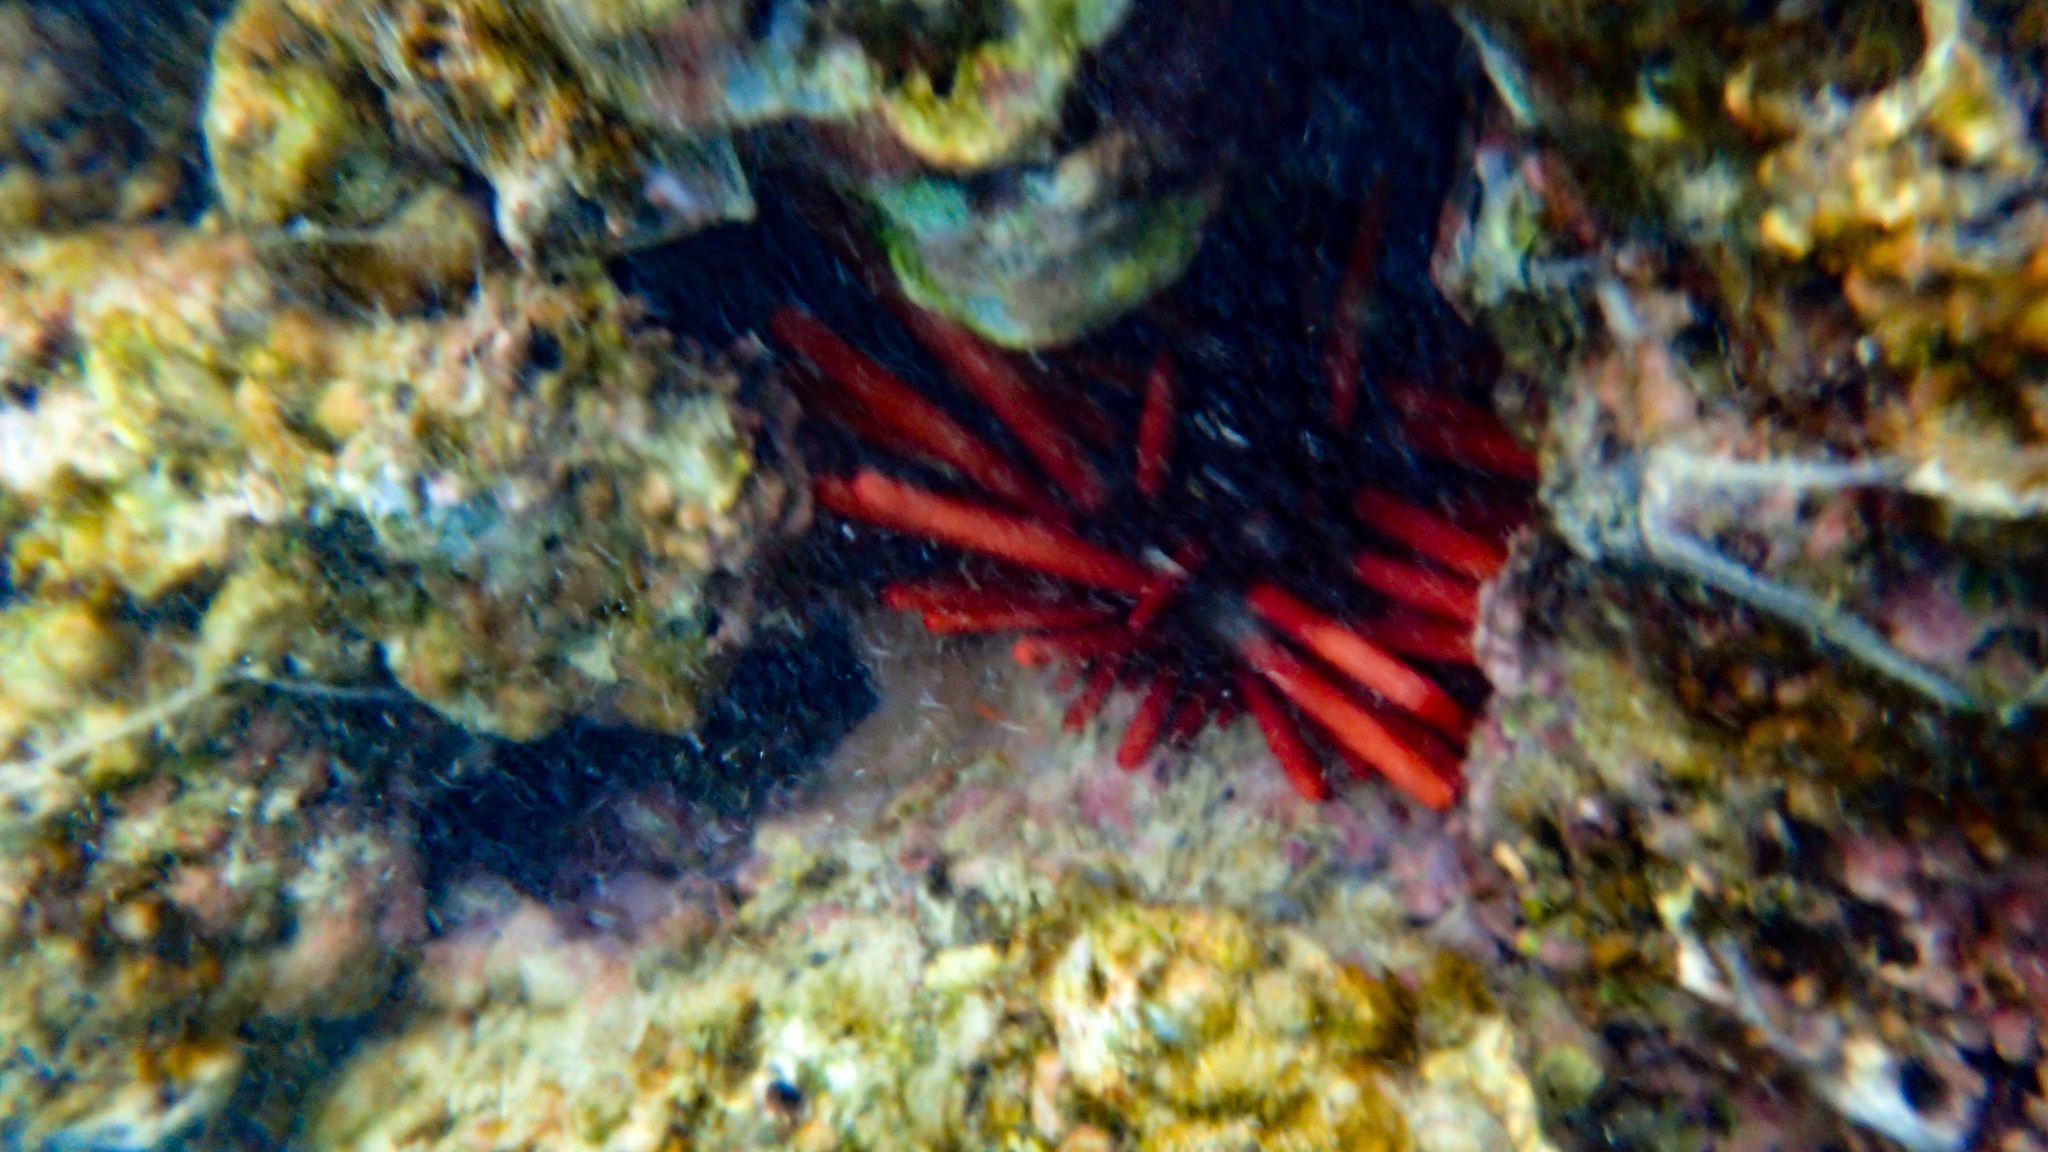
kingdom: Animalia
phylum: Echinodermata
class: Echinoidea
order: Camarodonta
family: Echinometridae
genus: Heterocentrotus
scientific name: Heterocentrotus mamillatus
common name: Slate pencil urchin
